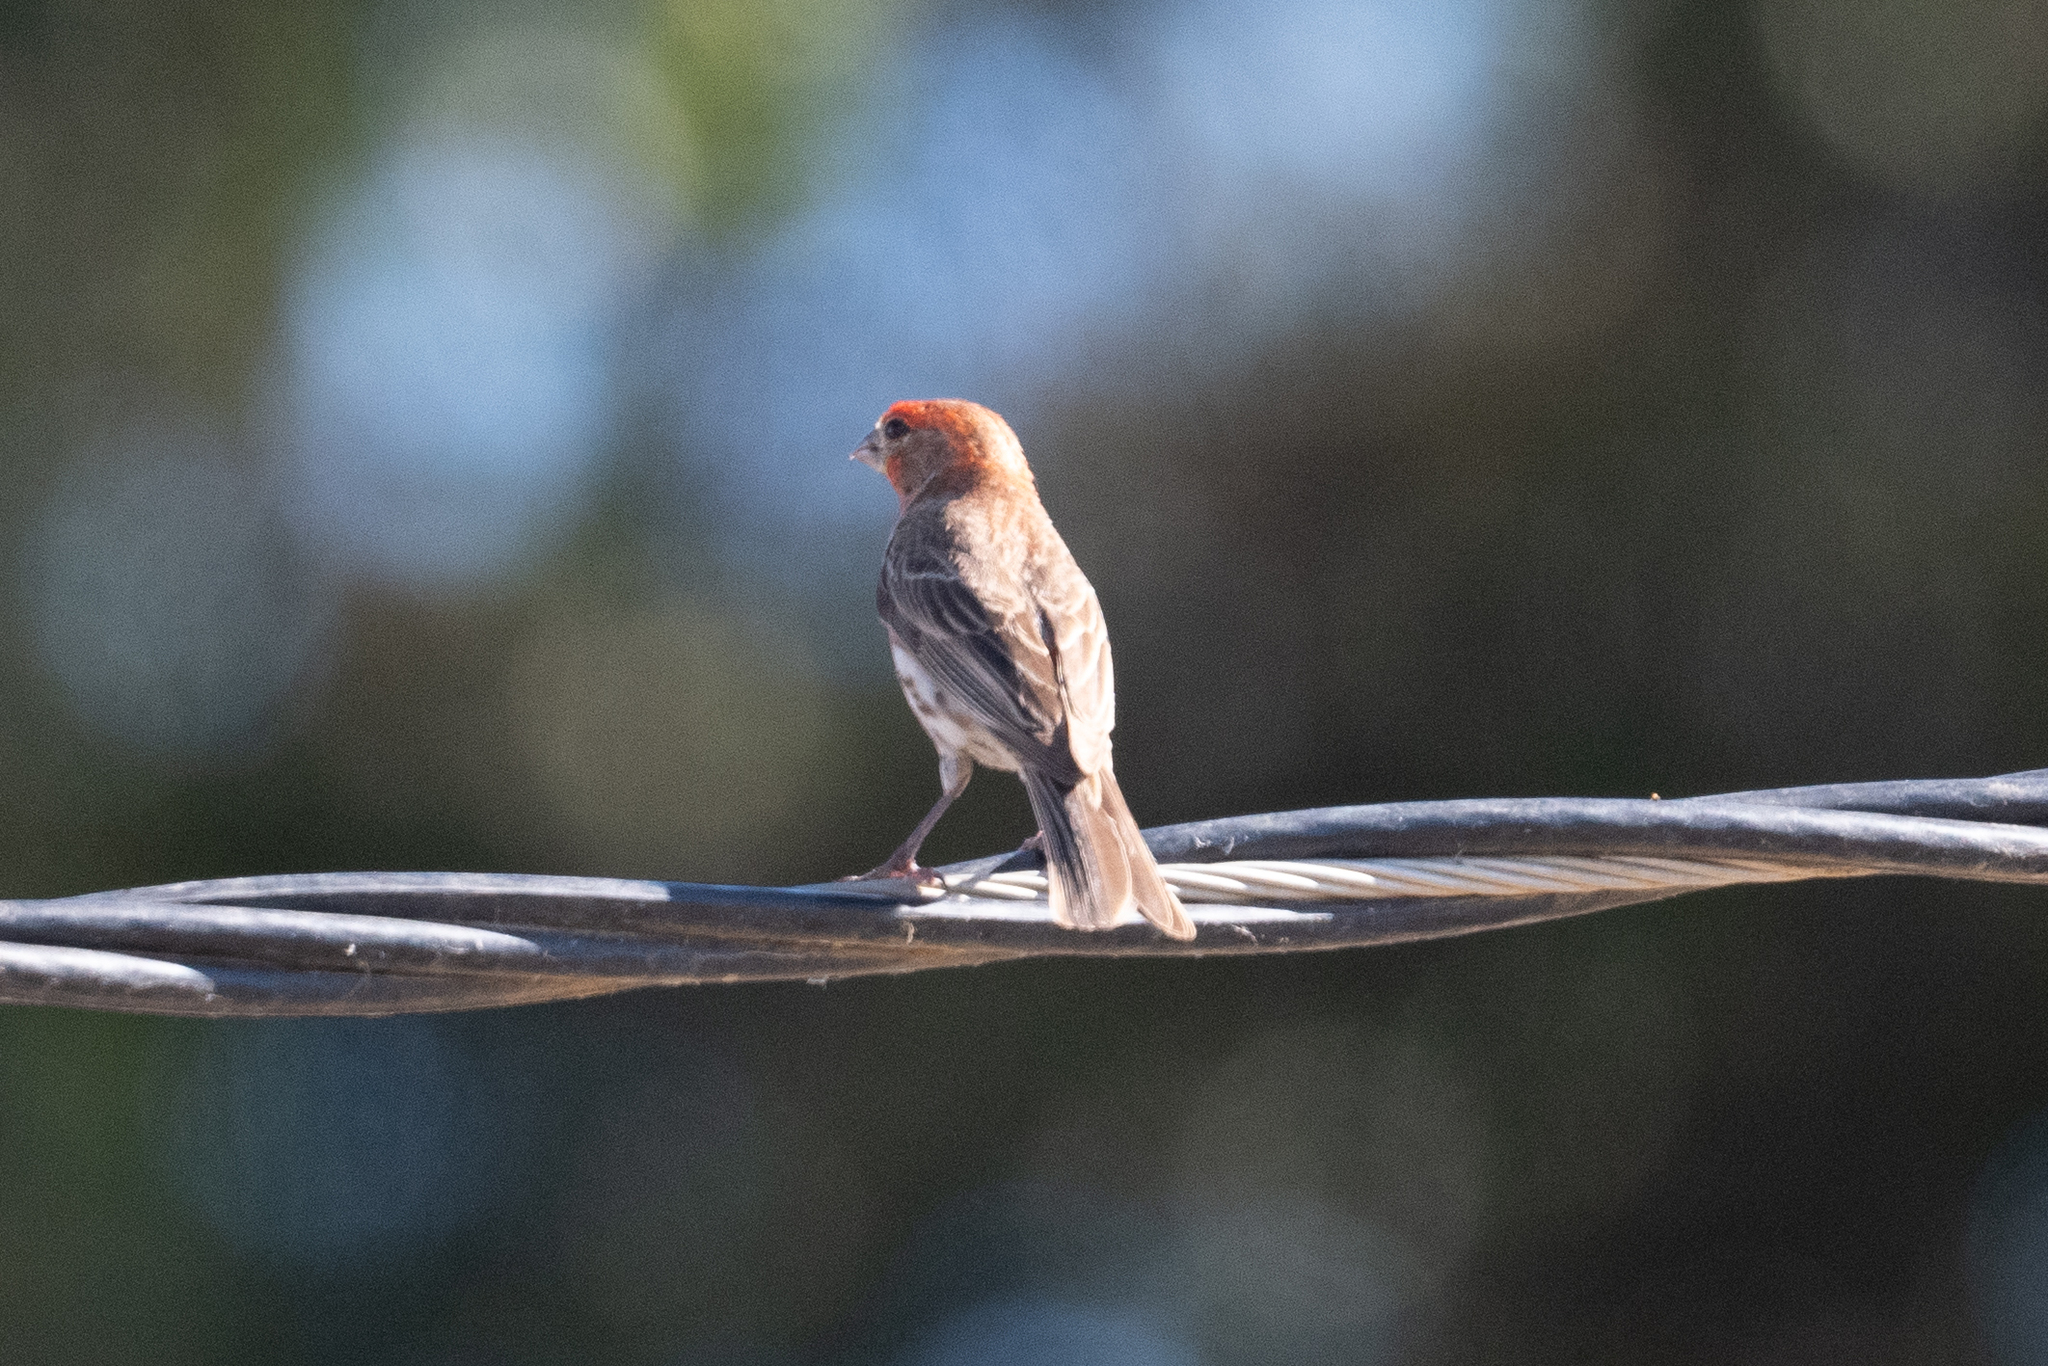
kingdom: Animalia
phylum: Chordata
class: Aves
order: Passeriformes
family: Fringillidae
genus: Haemorhous
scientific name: Haemorhous mexicanus
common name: House finch
